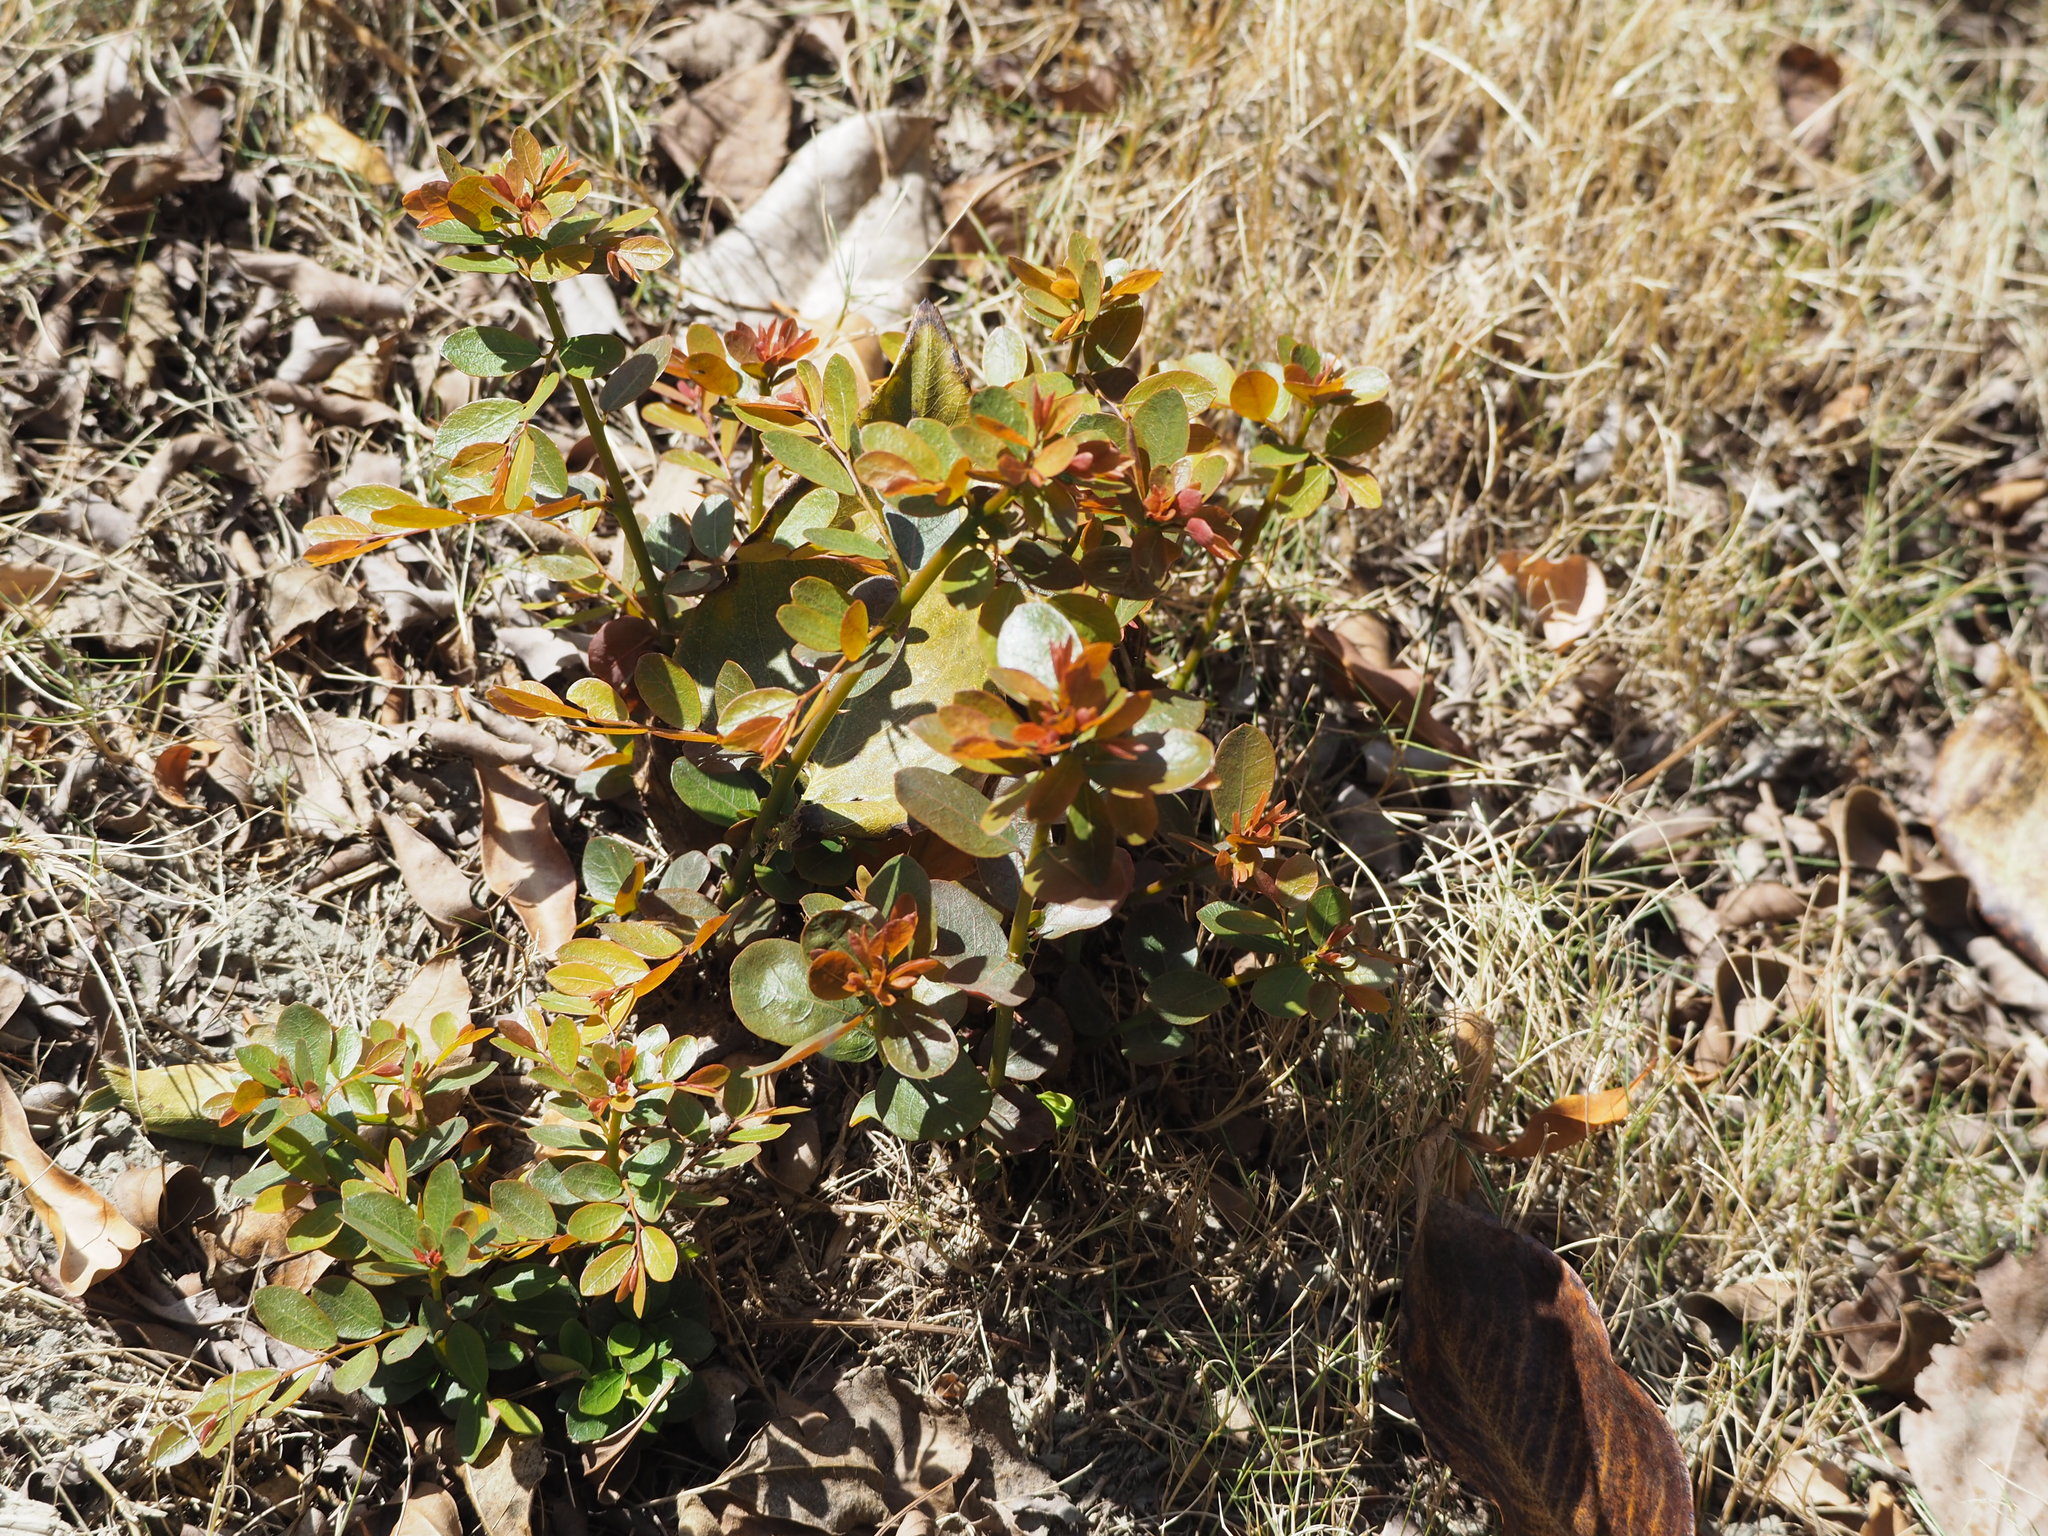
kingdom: Plantae
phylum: Tracheophyta
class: Magnoliopsida
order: Malpighiales
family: Phyllanthaceae
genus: Phyllanthus
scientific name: Phyllanthus reticulatus
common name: Potato bush
